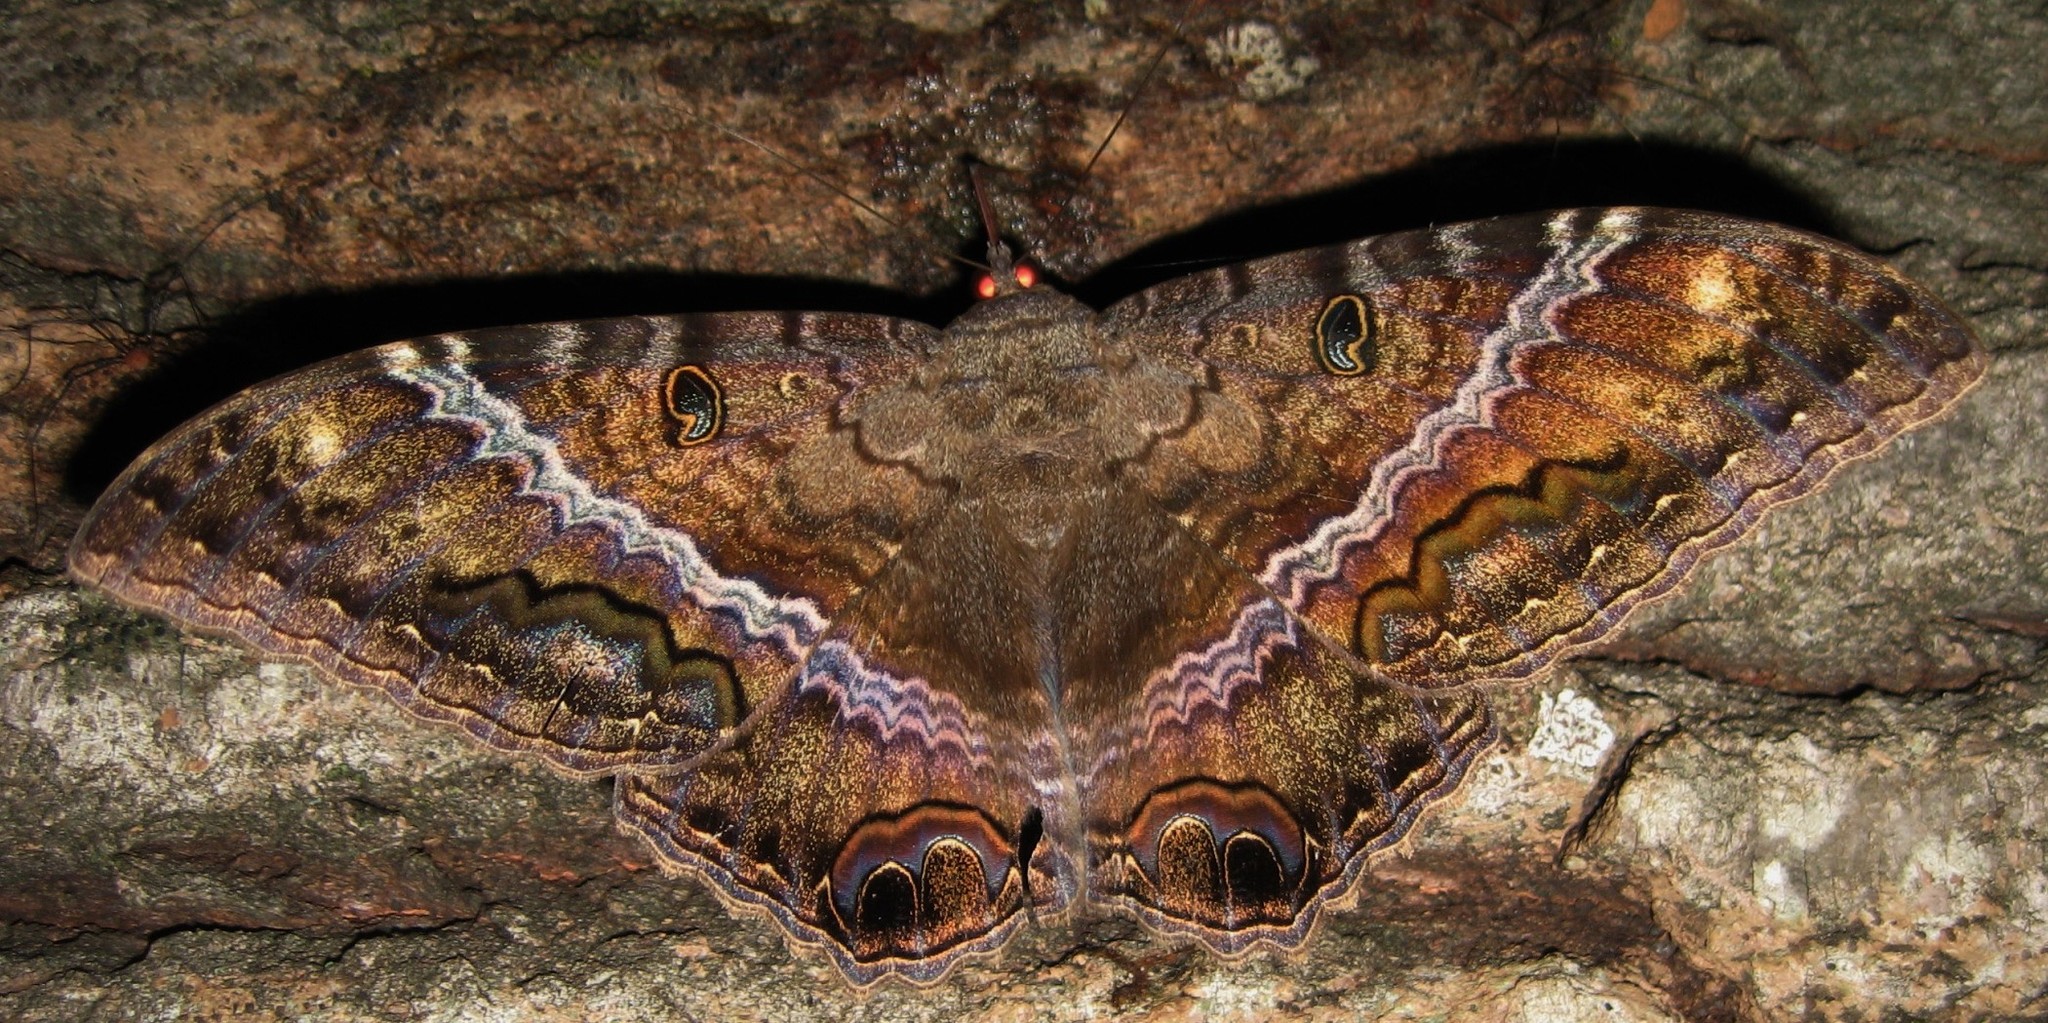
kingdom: Animalia
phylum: Arthropoda
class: Insecta
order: Lepidoptera
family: Erebidae
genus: Ascalapha
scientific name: Ascalapha odorata
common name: Black witch
